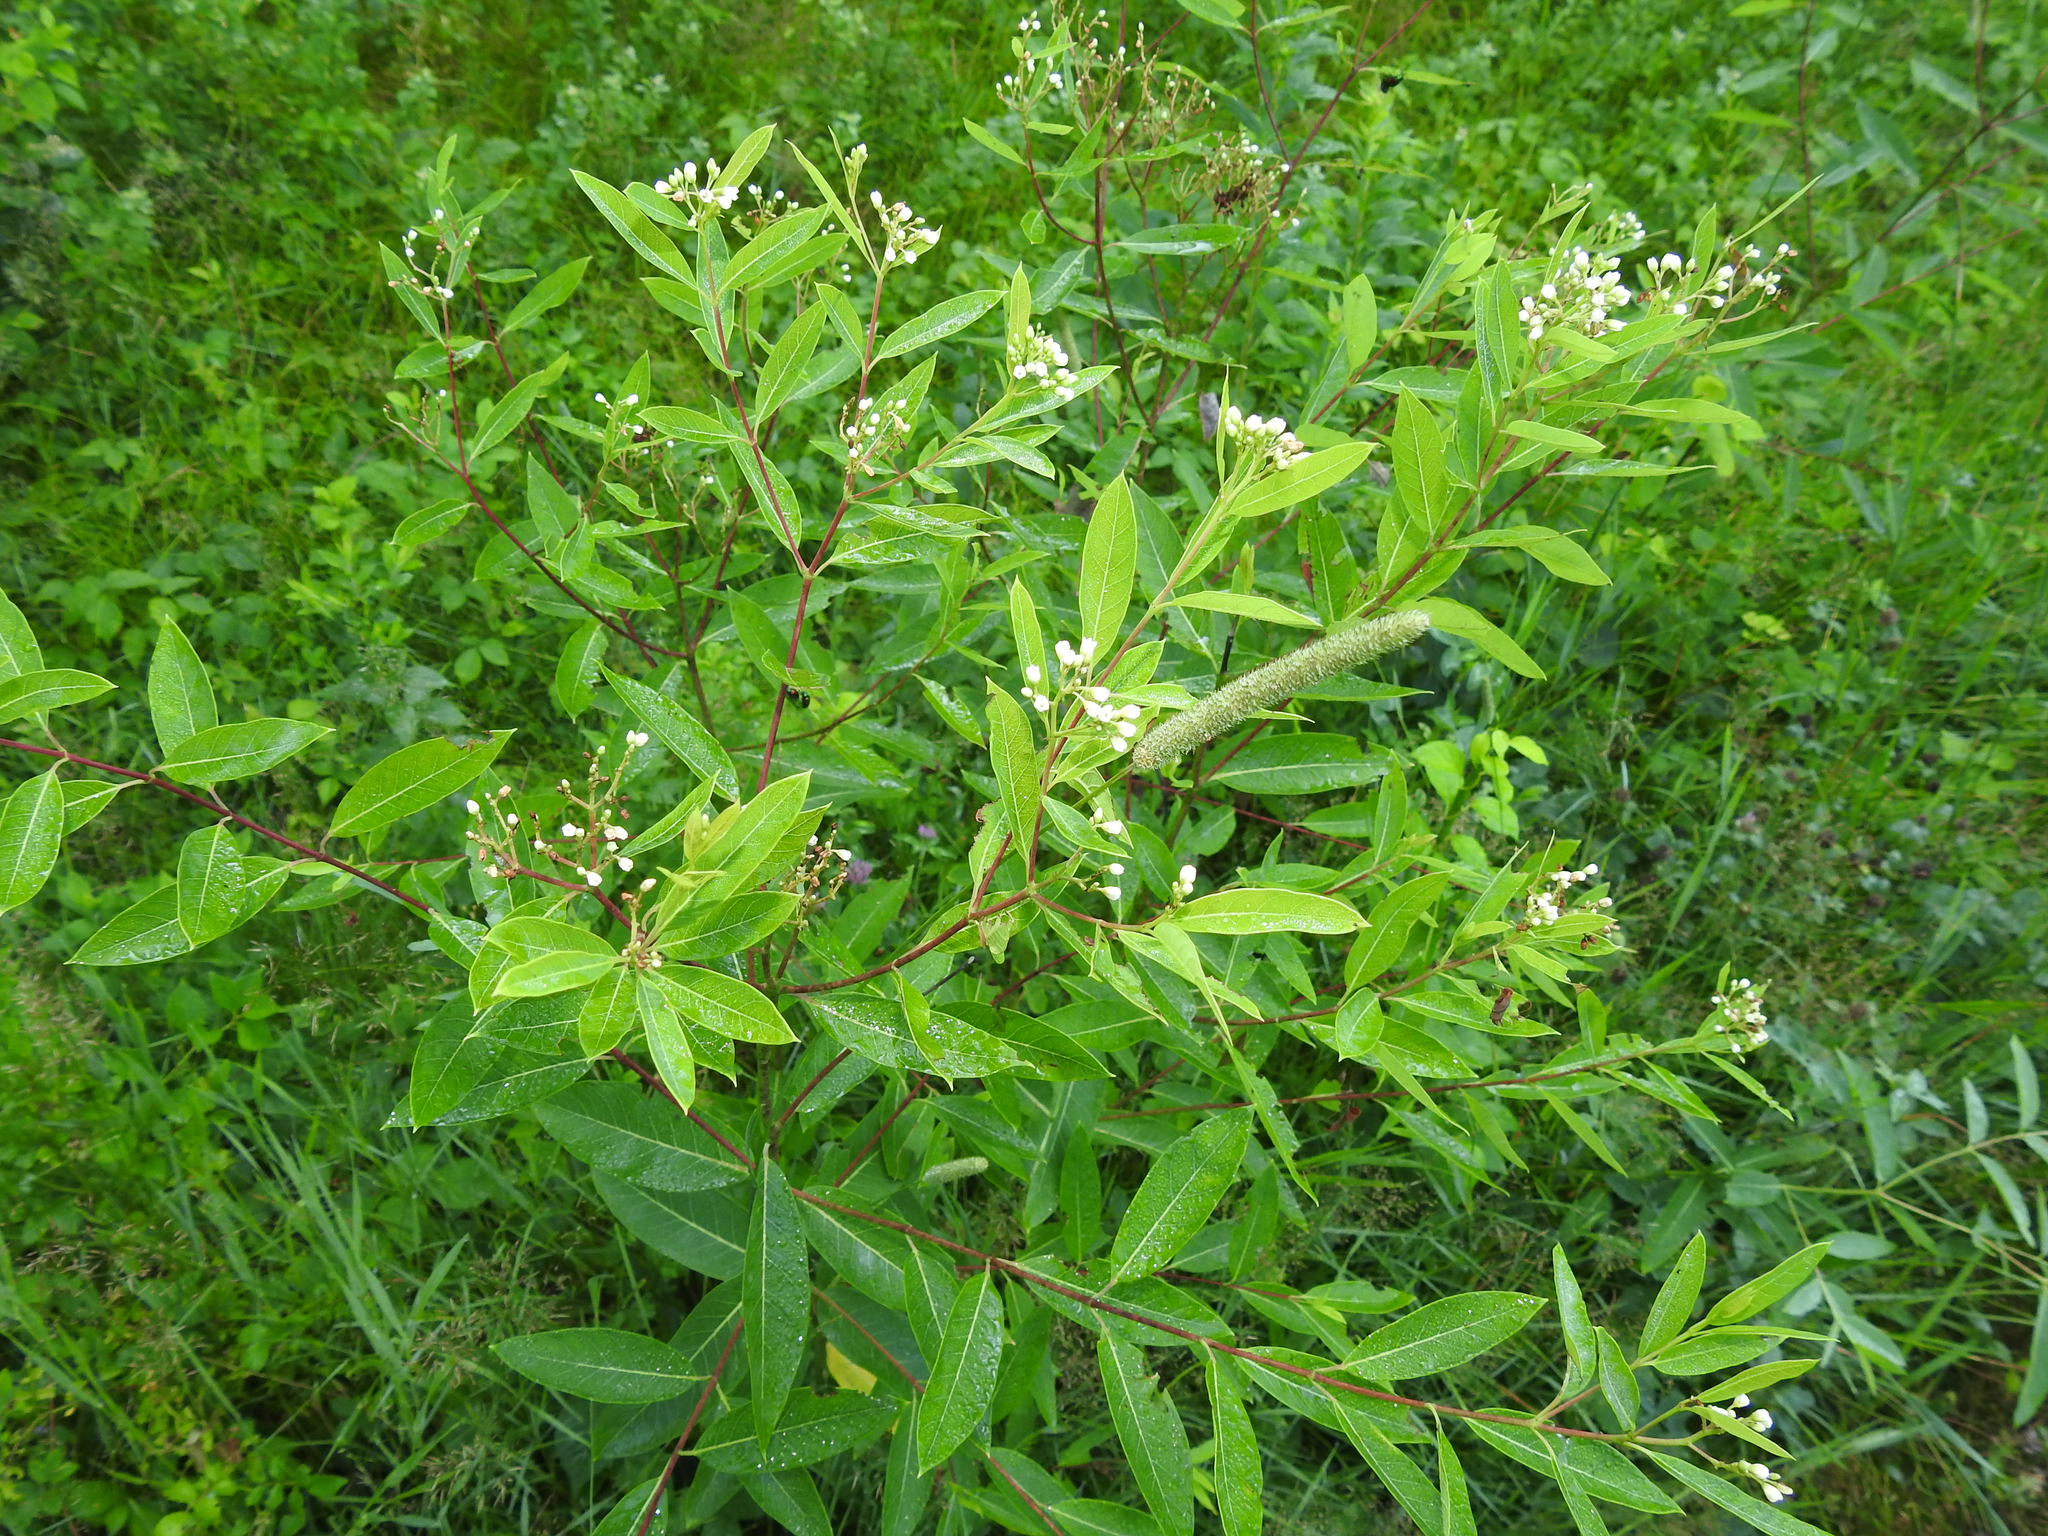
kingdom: Plantae
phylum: Tracheophyta
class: Magnoliopsida
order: Gentianales
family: Apocynaceae
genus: Apocynum
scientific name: Apocynum cannabinum
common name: Hemp dogbane
